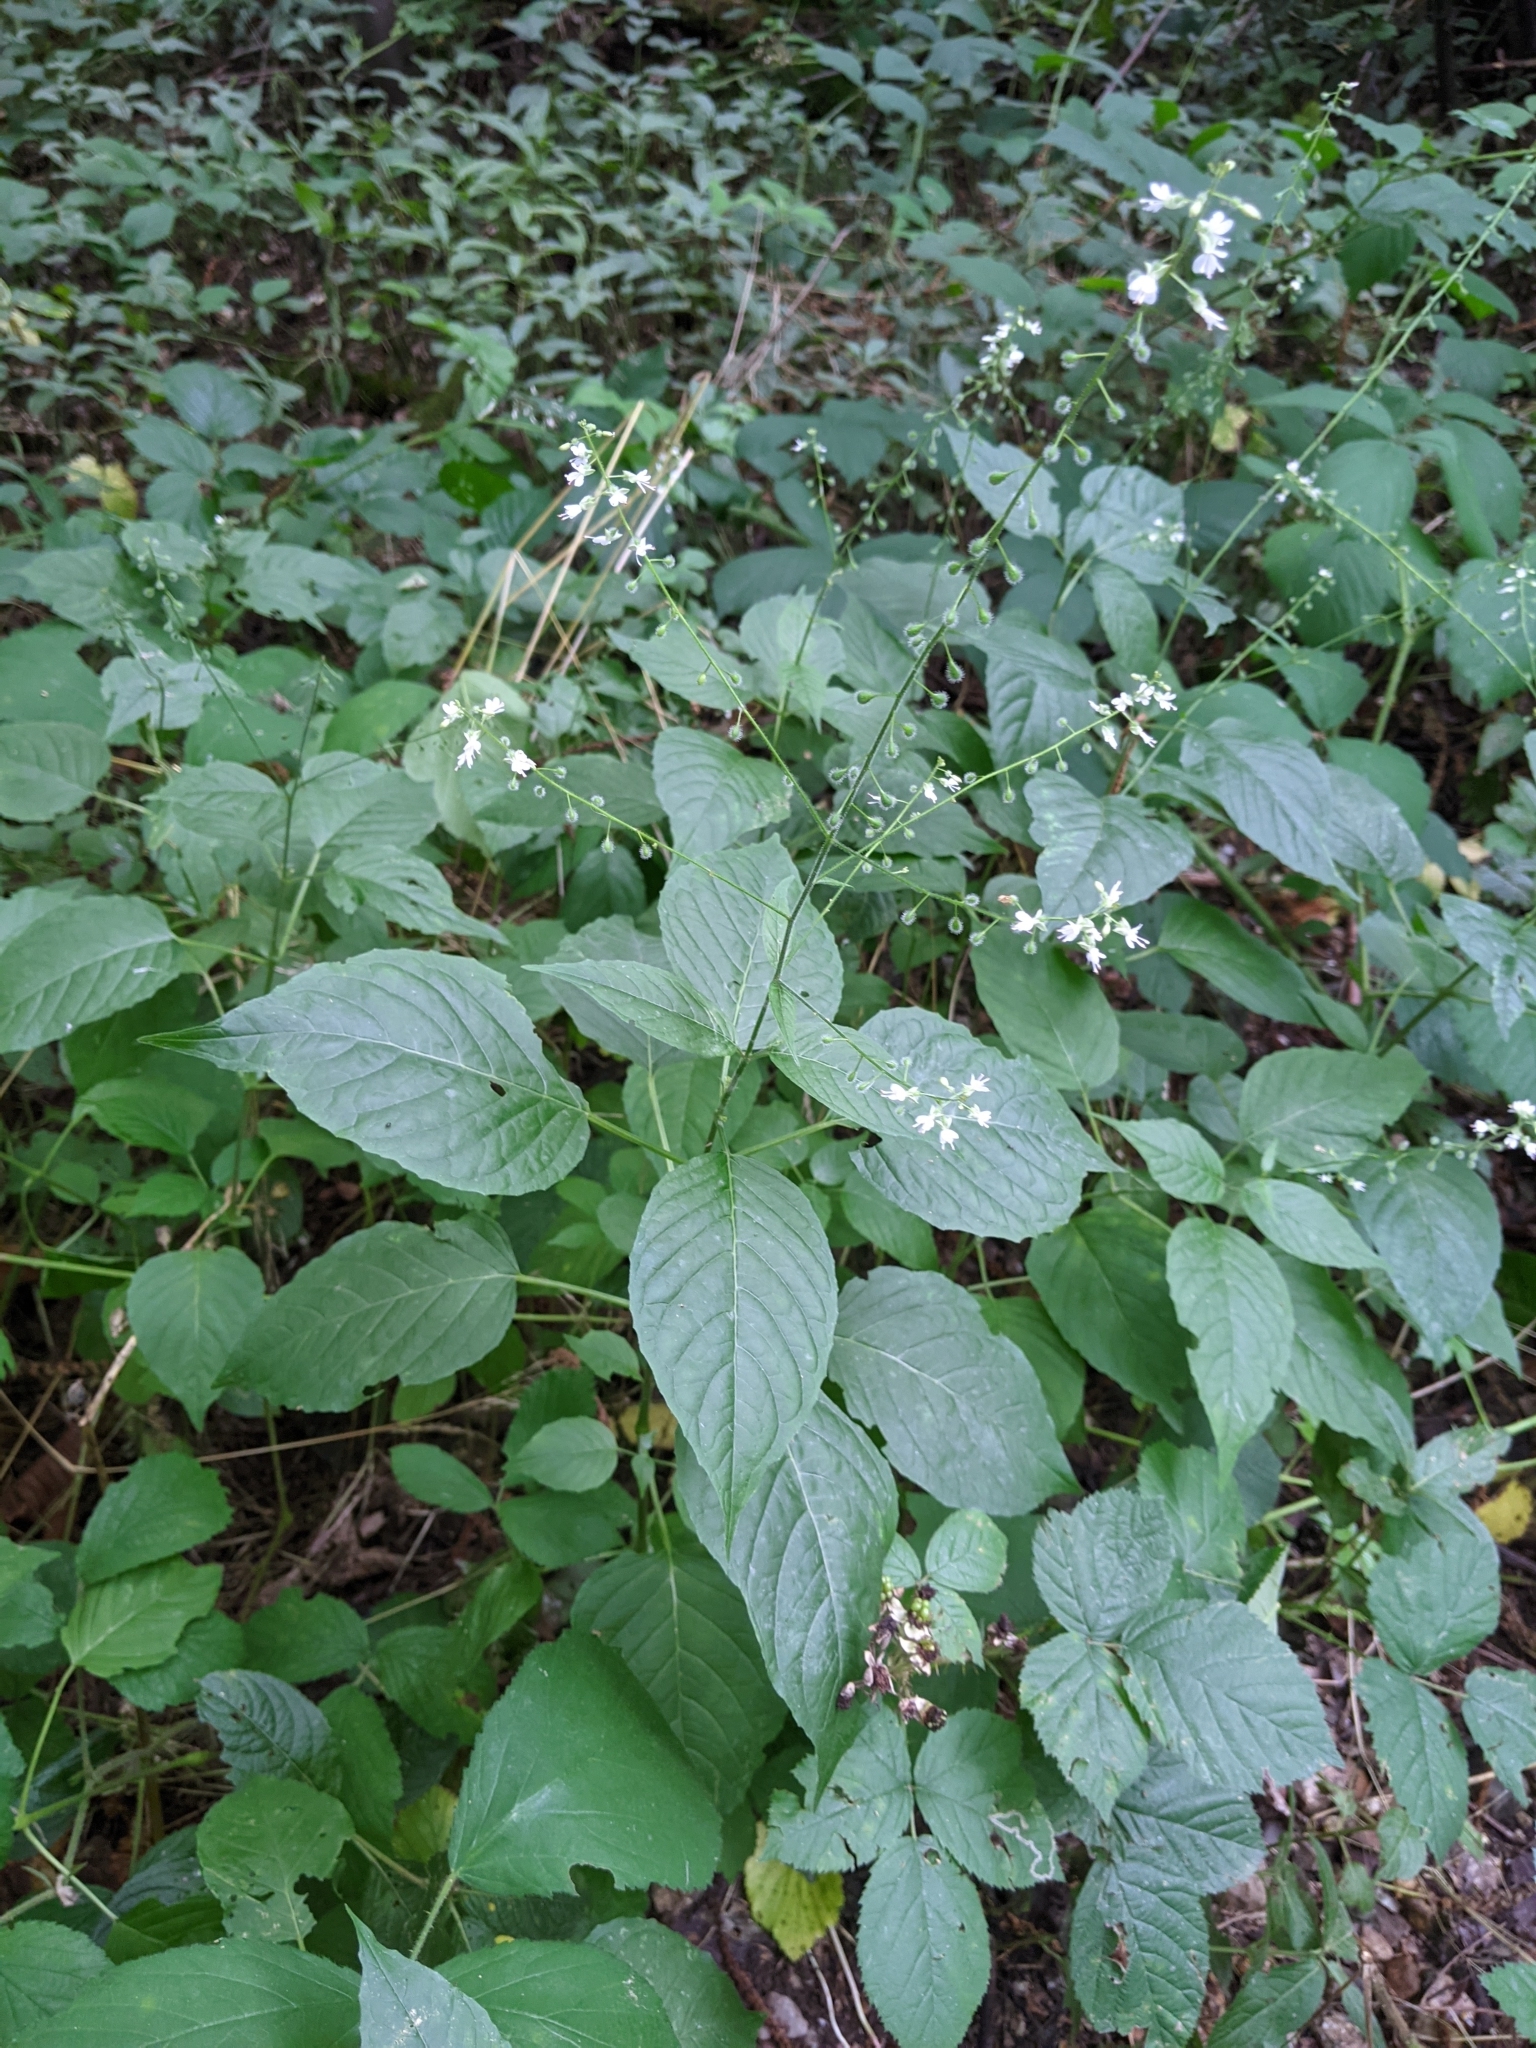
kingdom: Plantae
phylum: Tracheophyta
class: Magnoliopsida
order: Myrtales
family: Onagraceae
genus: Circaea
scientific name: Circaea lutetiana
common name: Enchanter's-nightshade
